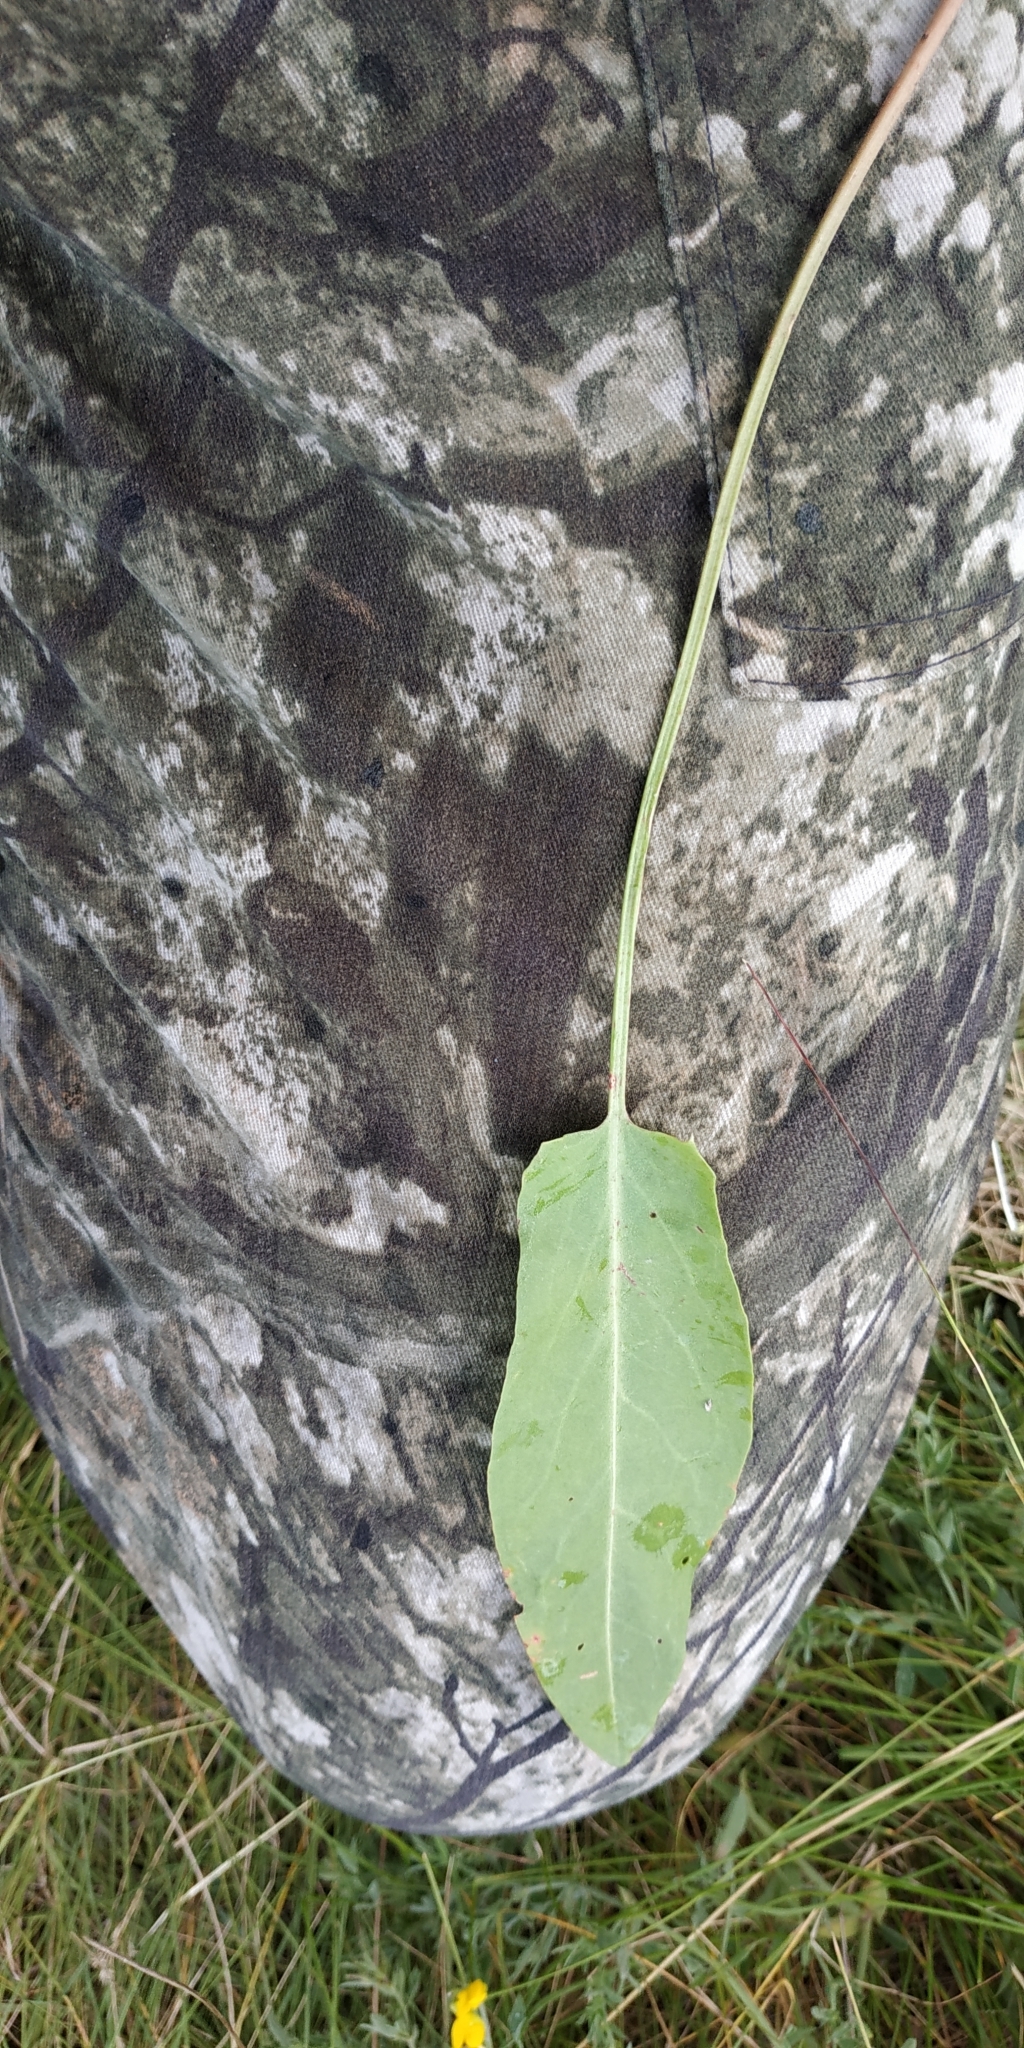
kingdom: Plantae
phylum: Tracheophyta
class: Magnoliopsida
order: Caryophyllales
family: Polygonaceae
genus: Rumex
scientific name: Rumex thyrsiflorus
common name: Garden sorrel
